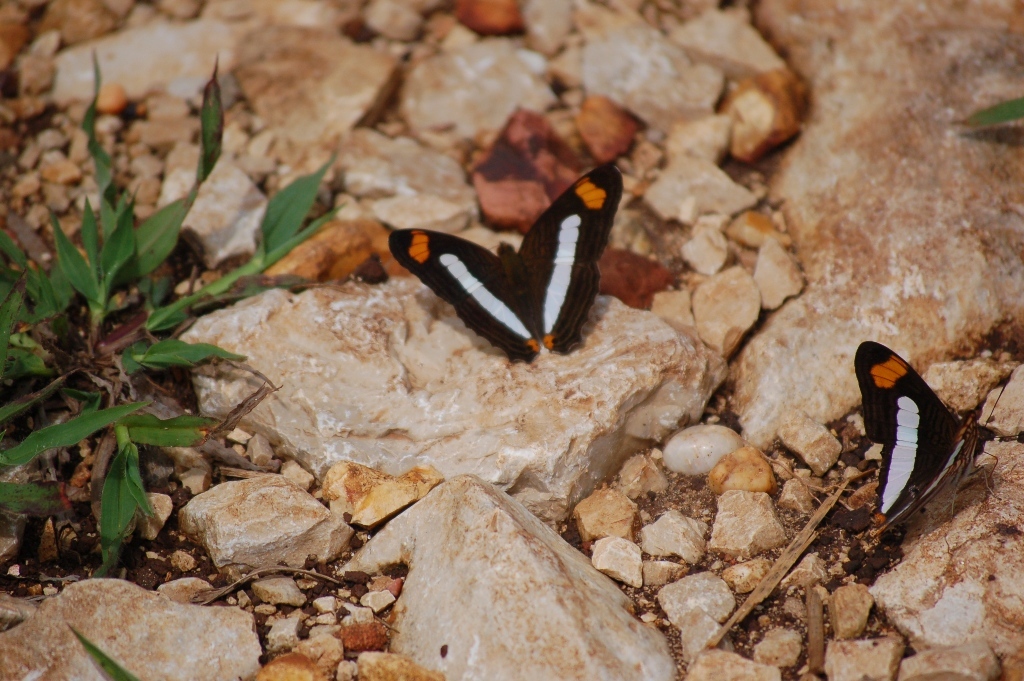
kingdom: Animalia
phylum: Arthropoda
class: Insecta
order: Lepidoptera
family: Nymphalidae
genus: Limenitis
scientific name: Limenitis iphiclus
